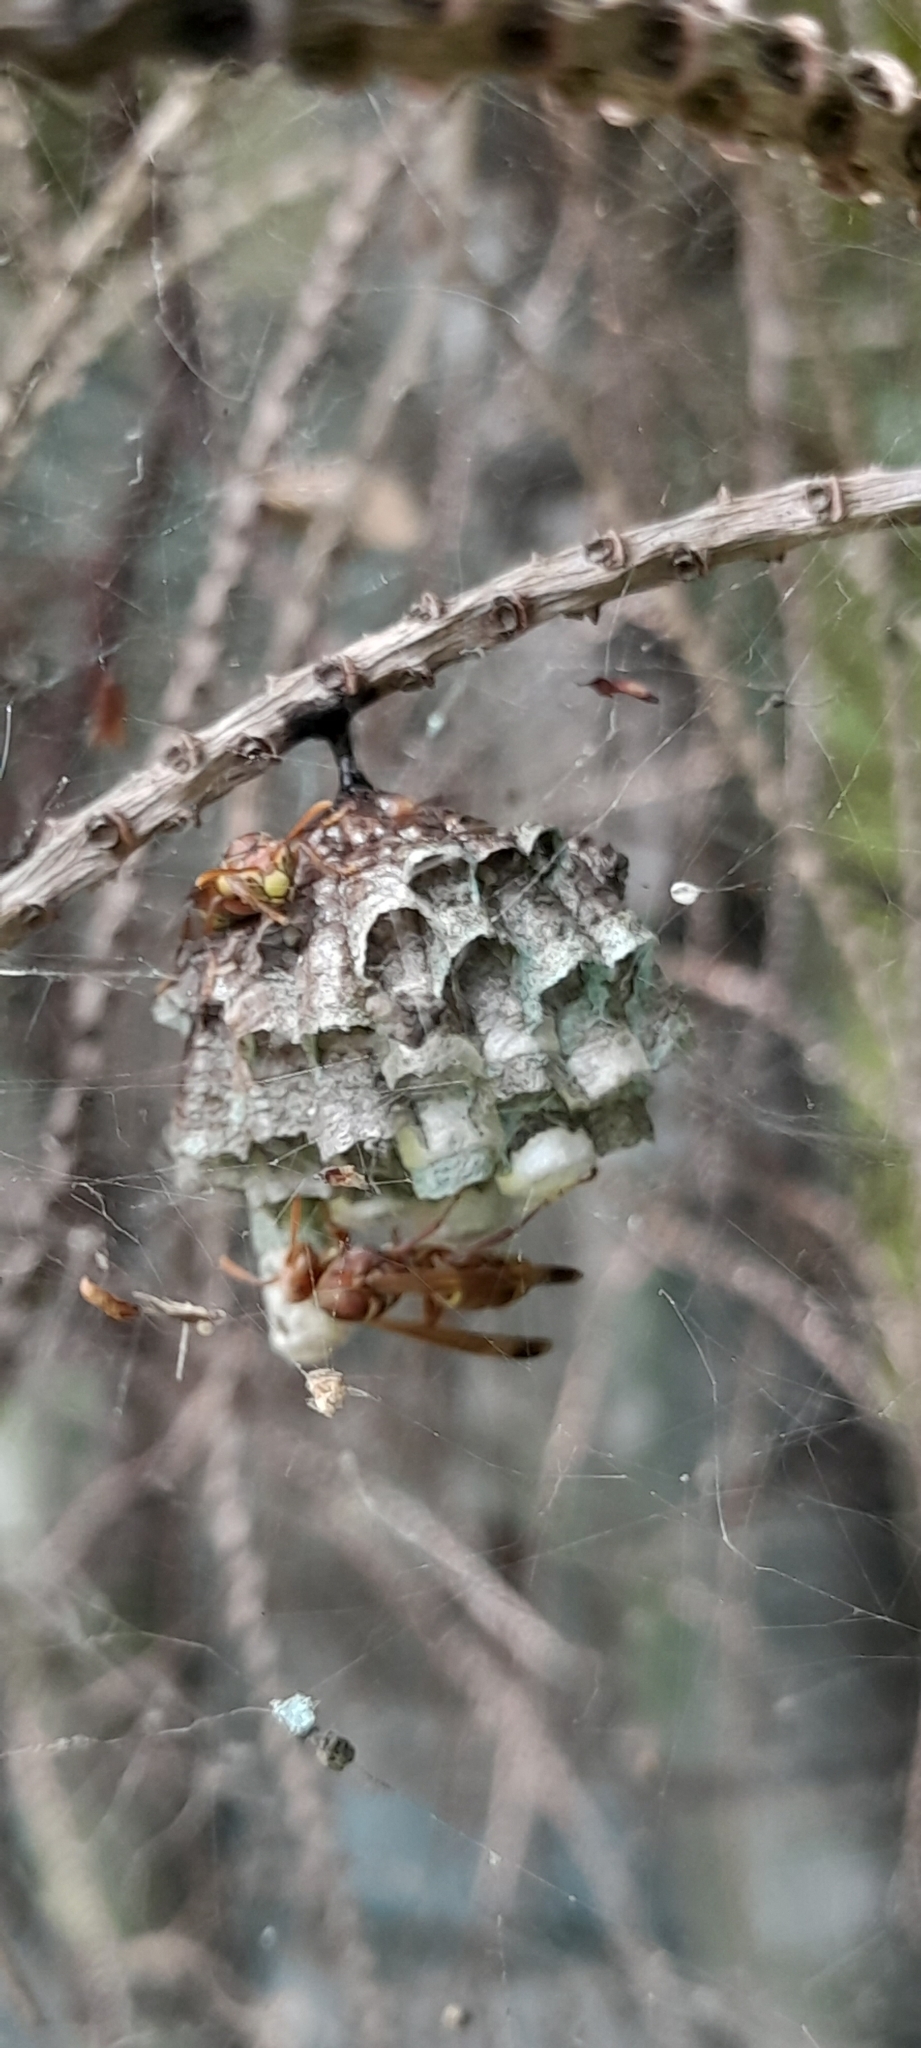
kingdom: Animalia
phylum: Arthropoda
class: Insecta
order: Hymenoptera
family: Eumenidae
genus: Polistes
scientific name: Polistes stigma
